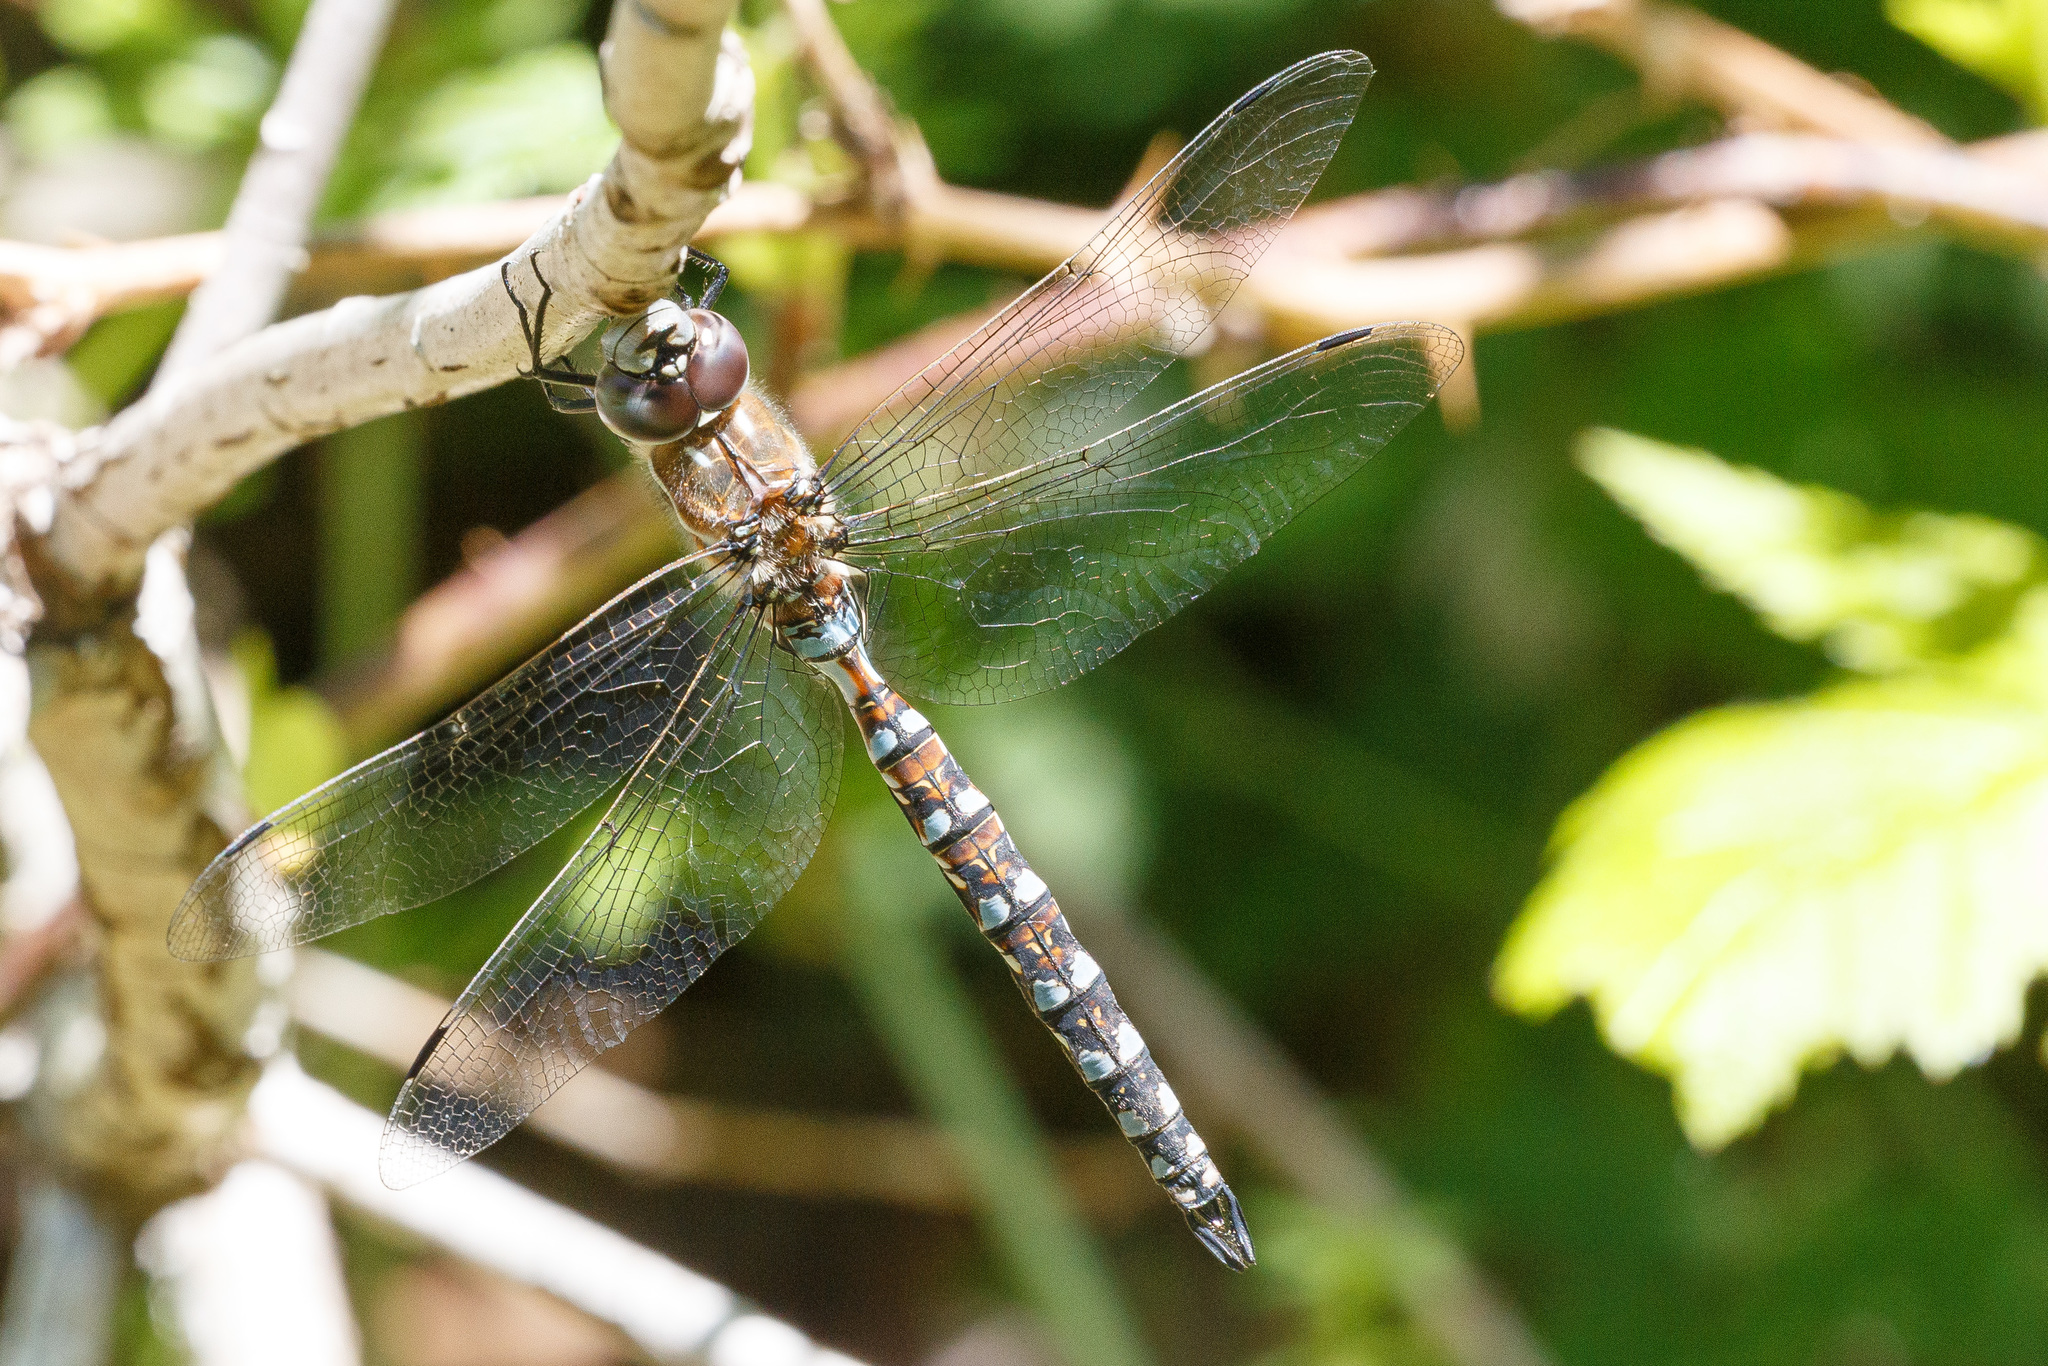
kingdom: Animalia
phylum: Arthropoda
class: Insecta
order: Odonata
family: Aeshnidae
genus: Rhionaeschna
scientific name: Rhionaeschna californica
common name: California darner
